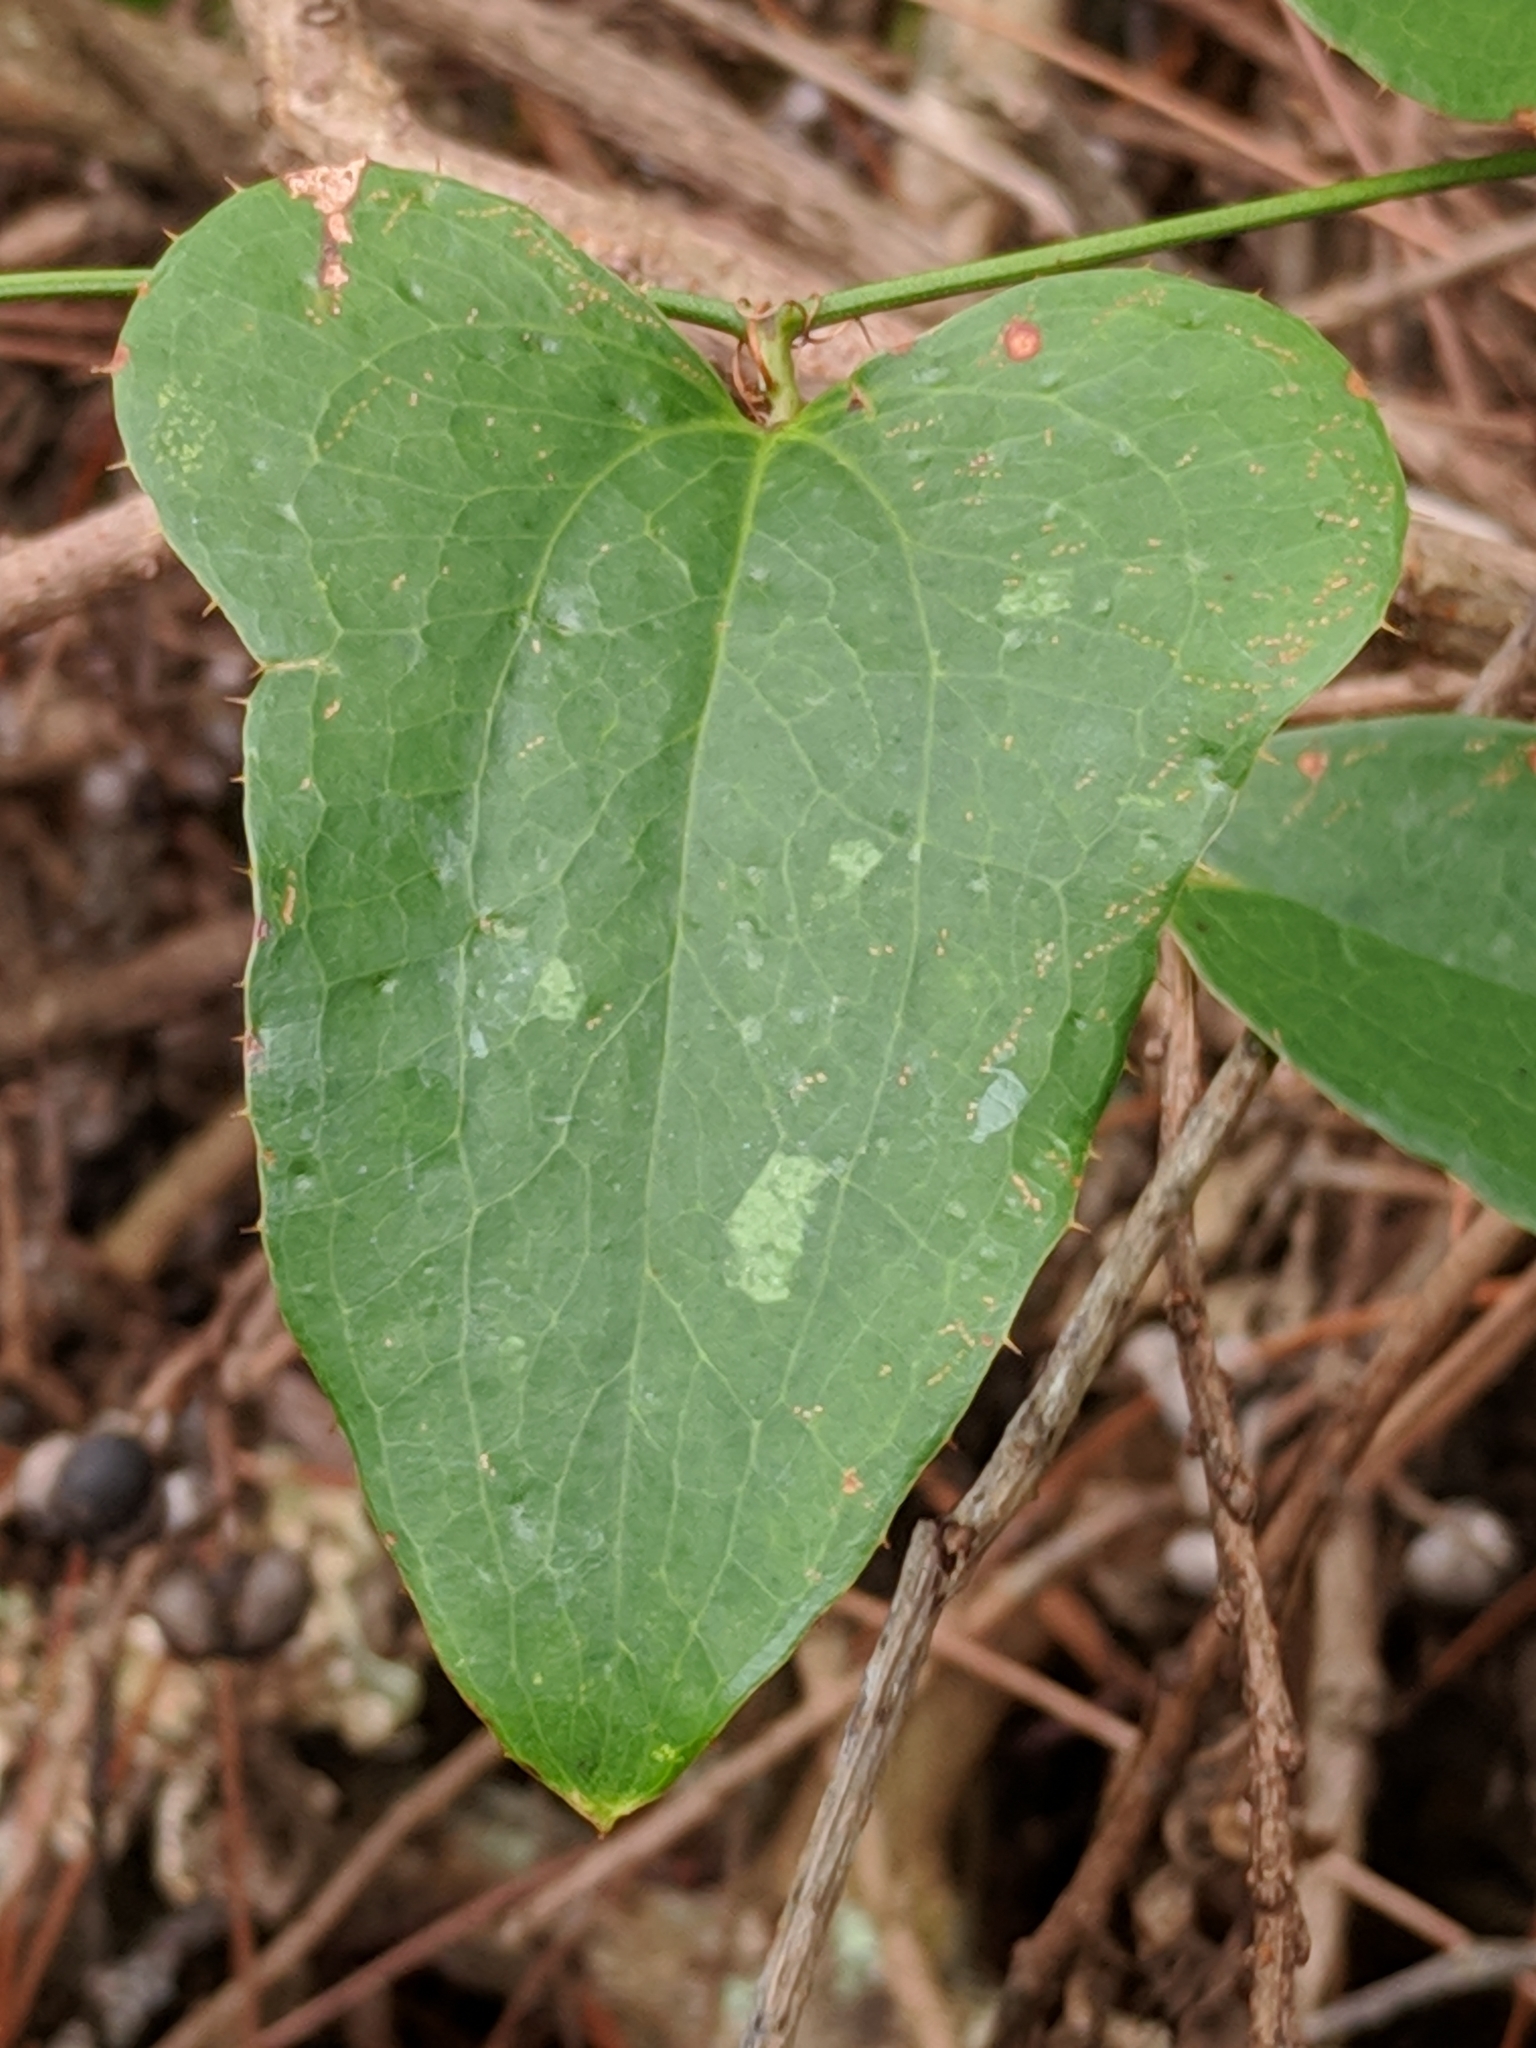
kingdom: Plantae
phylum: Tracheophyta
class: Liliopsida
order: Liliales
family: Smilacaceae
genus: Smilax
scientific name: Smilax bona-nox
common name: Catbrier
